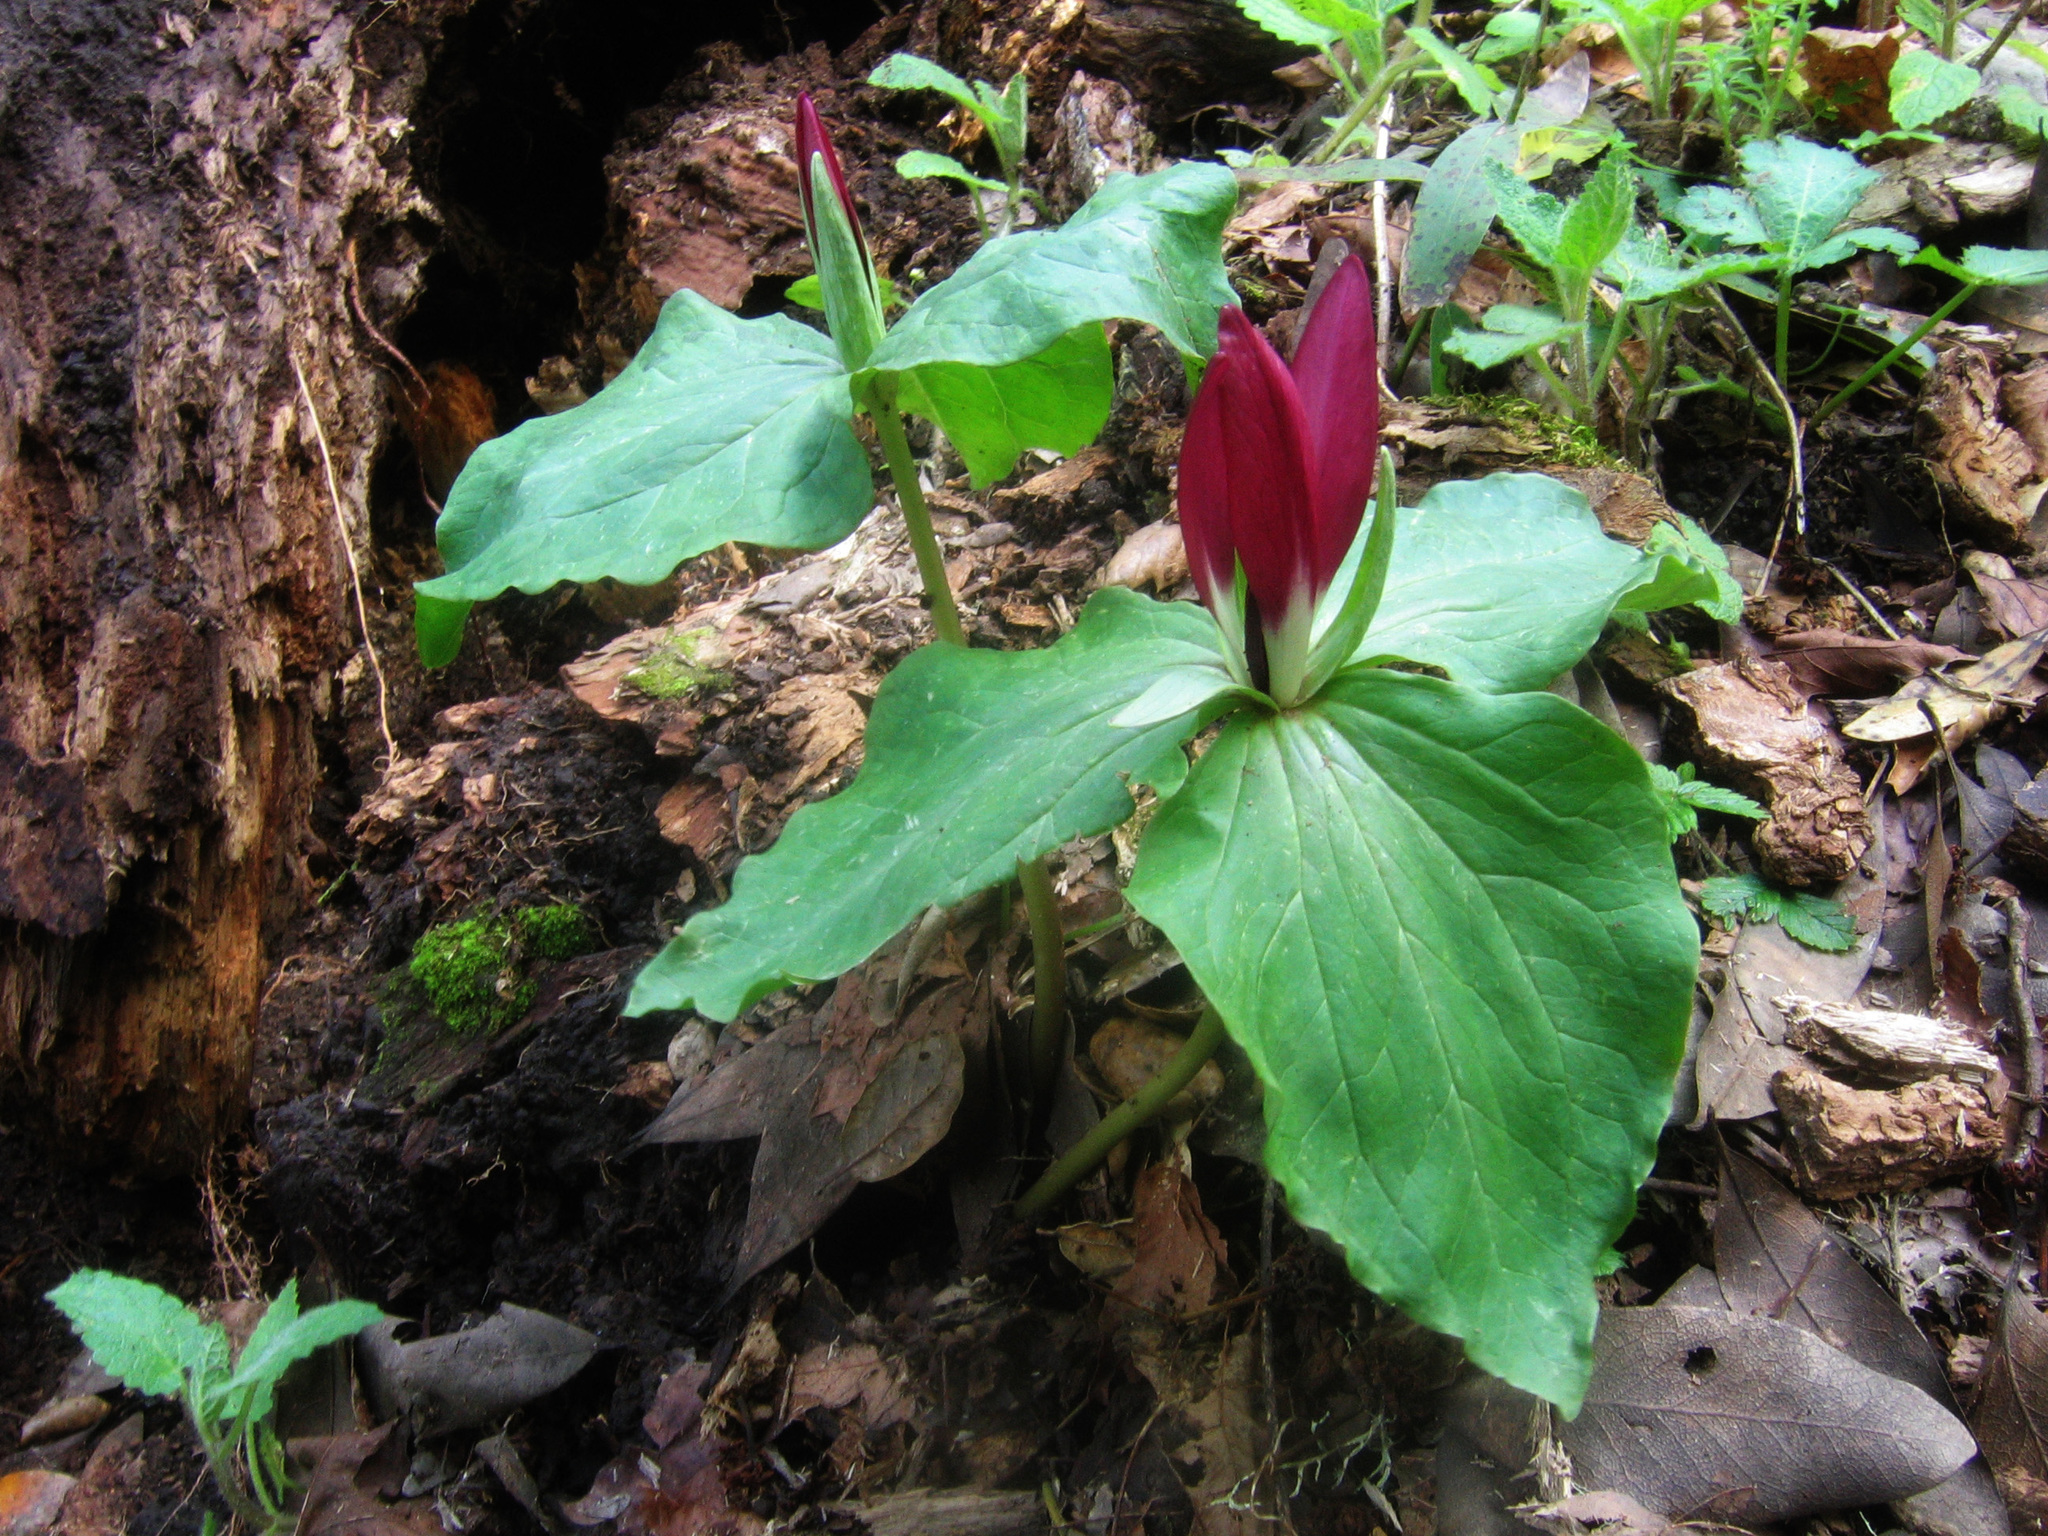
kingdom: Plantae
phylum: Tracheophyta
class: Liliopsida
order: Liliales
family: Melanthiaceae
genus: Trillium
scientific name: Trillium chloropetalum
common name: Giant trillium
